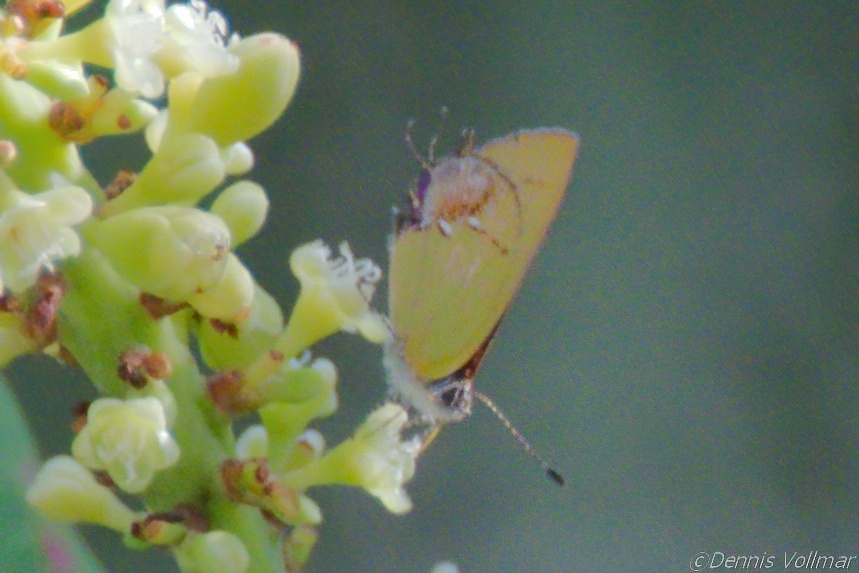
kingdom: Animalia
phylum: Arthropoda
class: Insecta
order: Lepidoptera
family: Lycaenidae
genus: Thecla
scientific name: Thecla maesites
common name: Verde azul hairstreak
